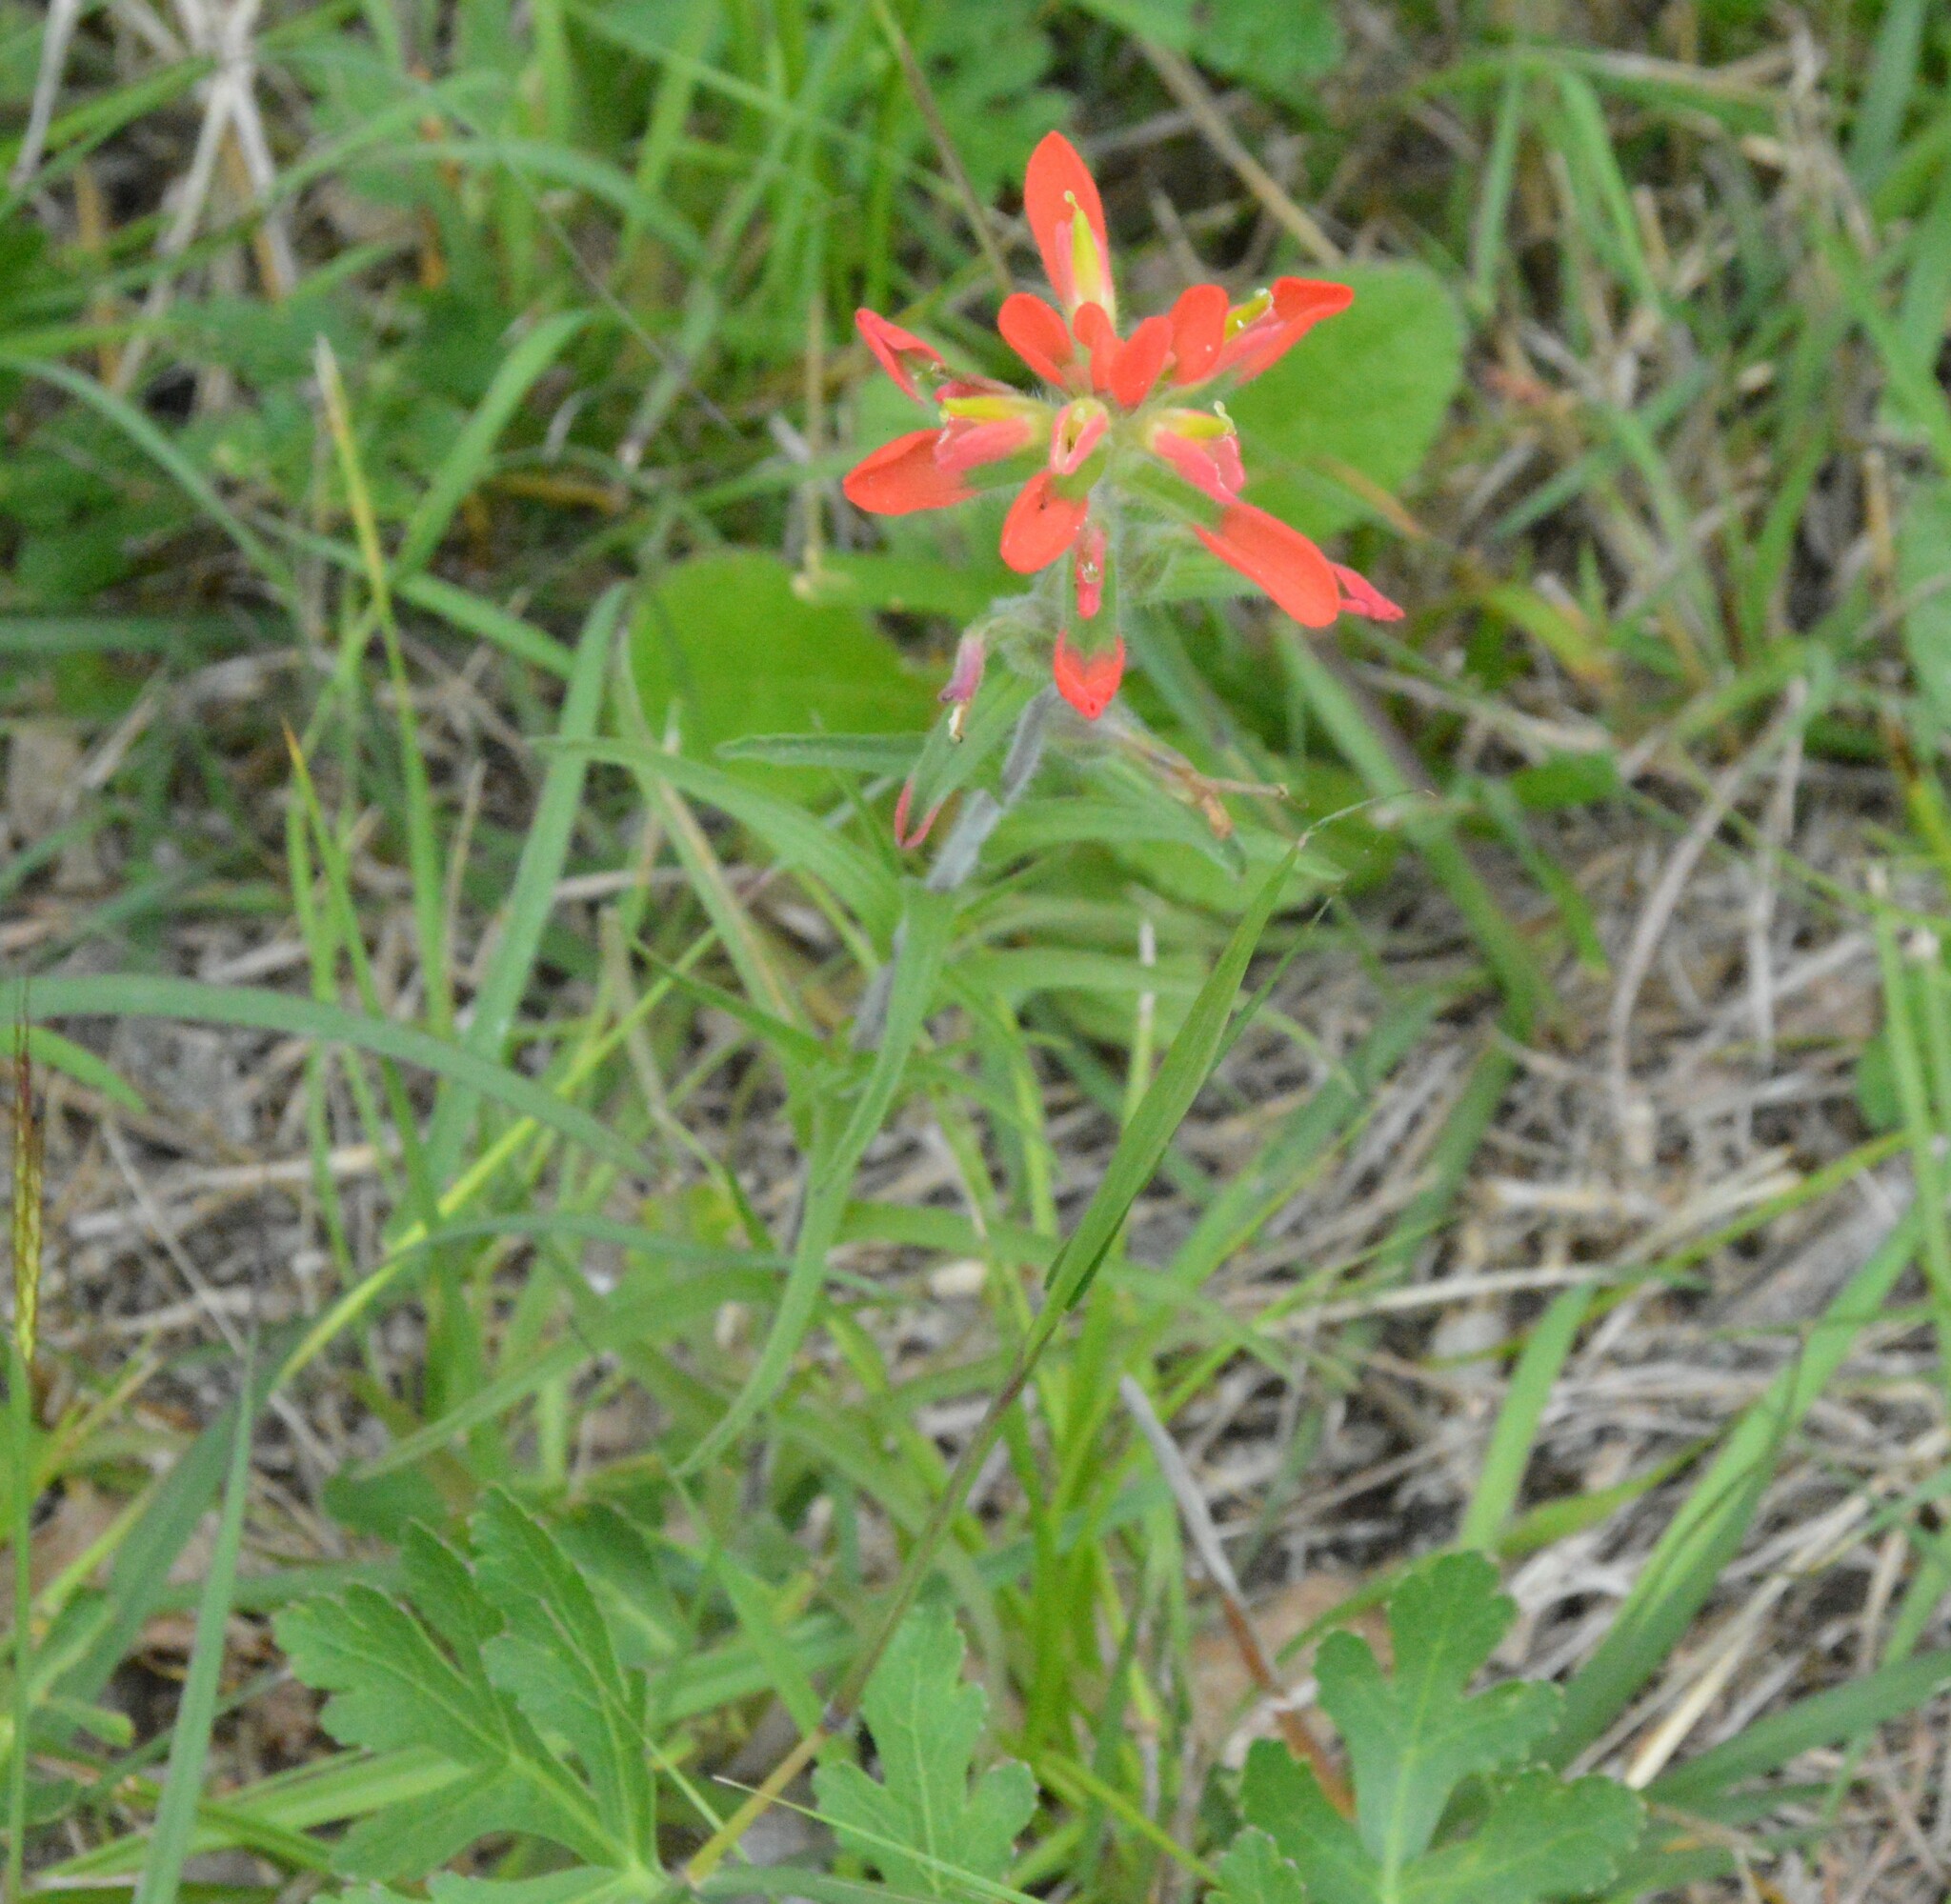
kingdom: Plantae
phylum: Tracheophyta
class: Magnoliopsida
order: Lamiales
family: Orobanchaceae
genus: Castilleja
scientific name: Castilleja indivisa
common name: Texas paintbrush
